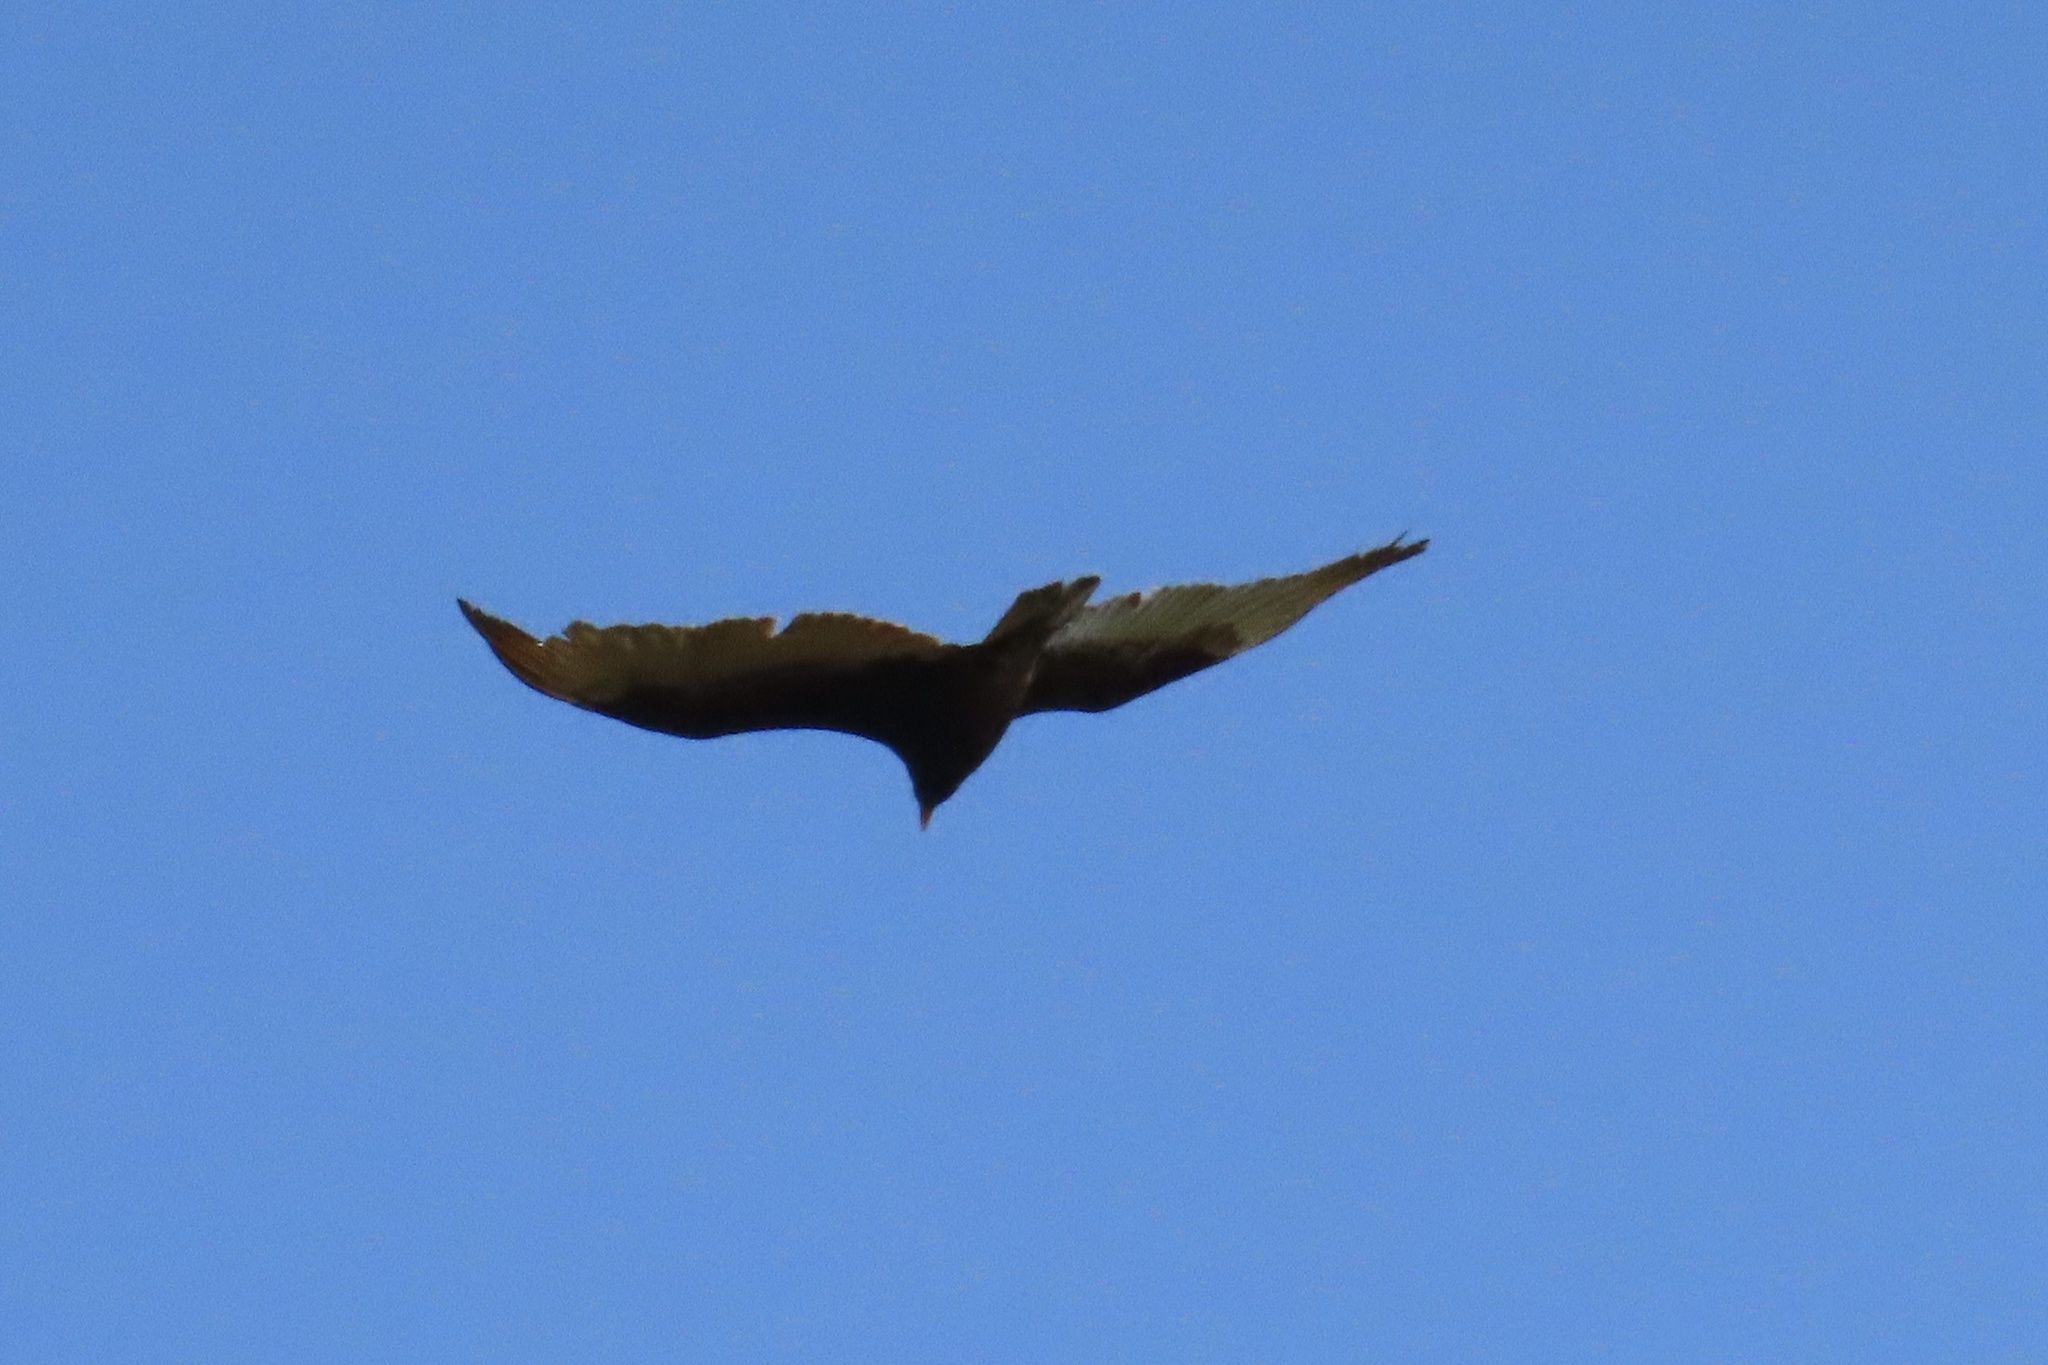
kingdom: Animalia
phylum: Chordata
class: Aves
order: Accipitriformes
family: Cathartidae
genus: Cathartes
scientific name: Cathartes aura
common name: Turkey vulture
